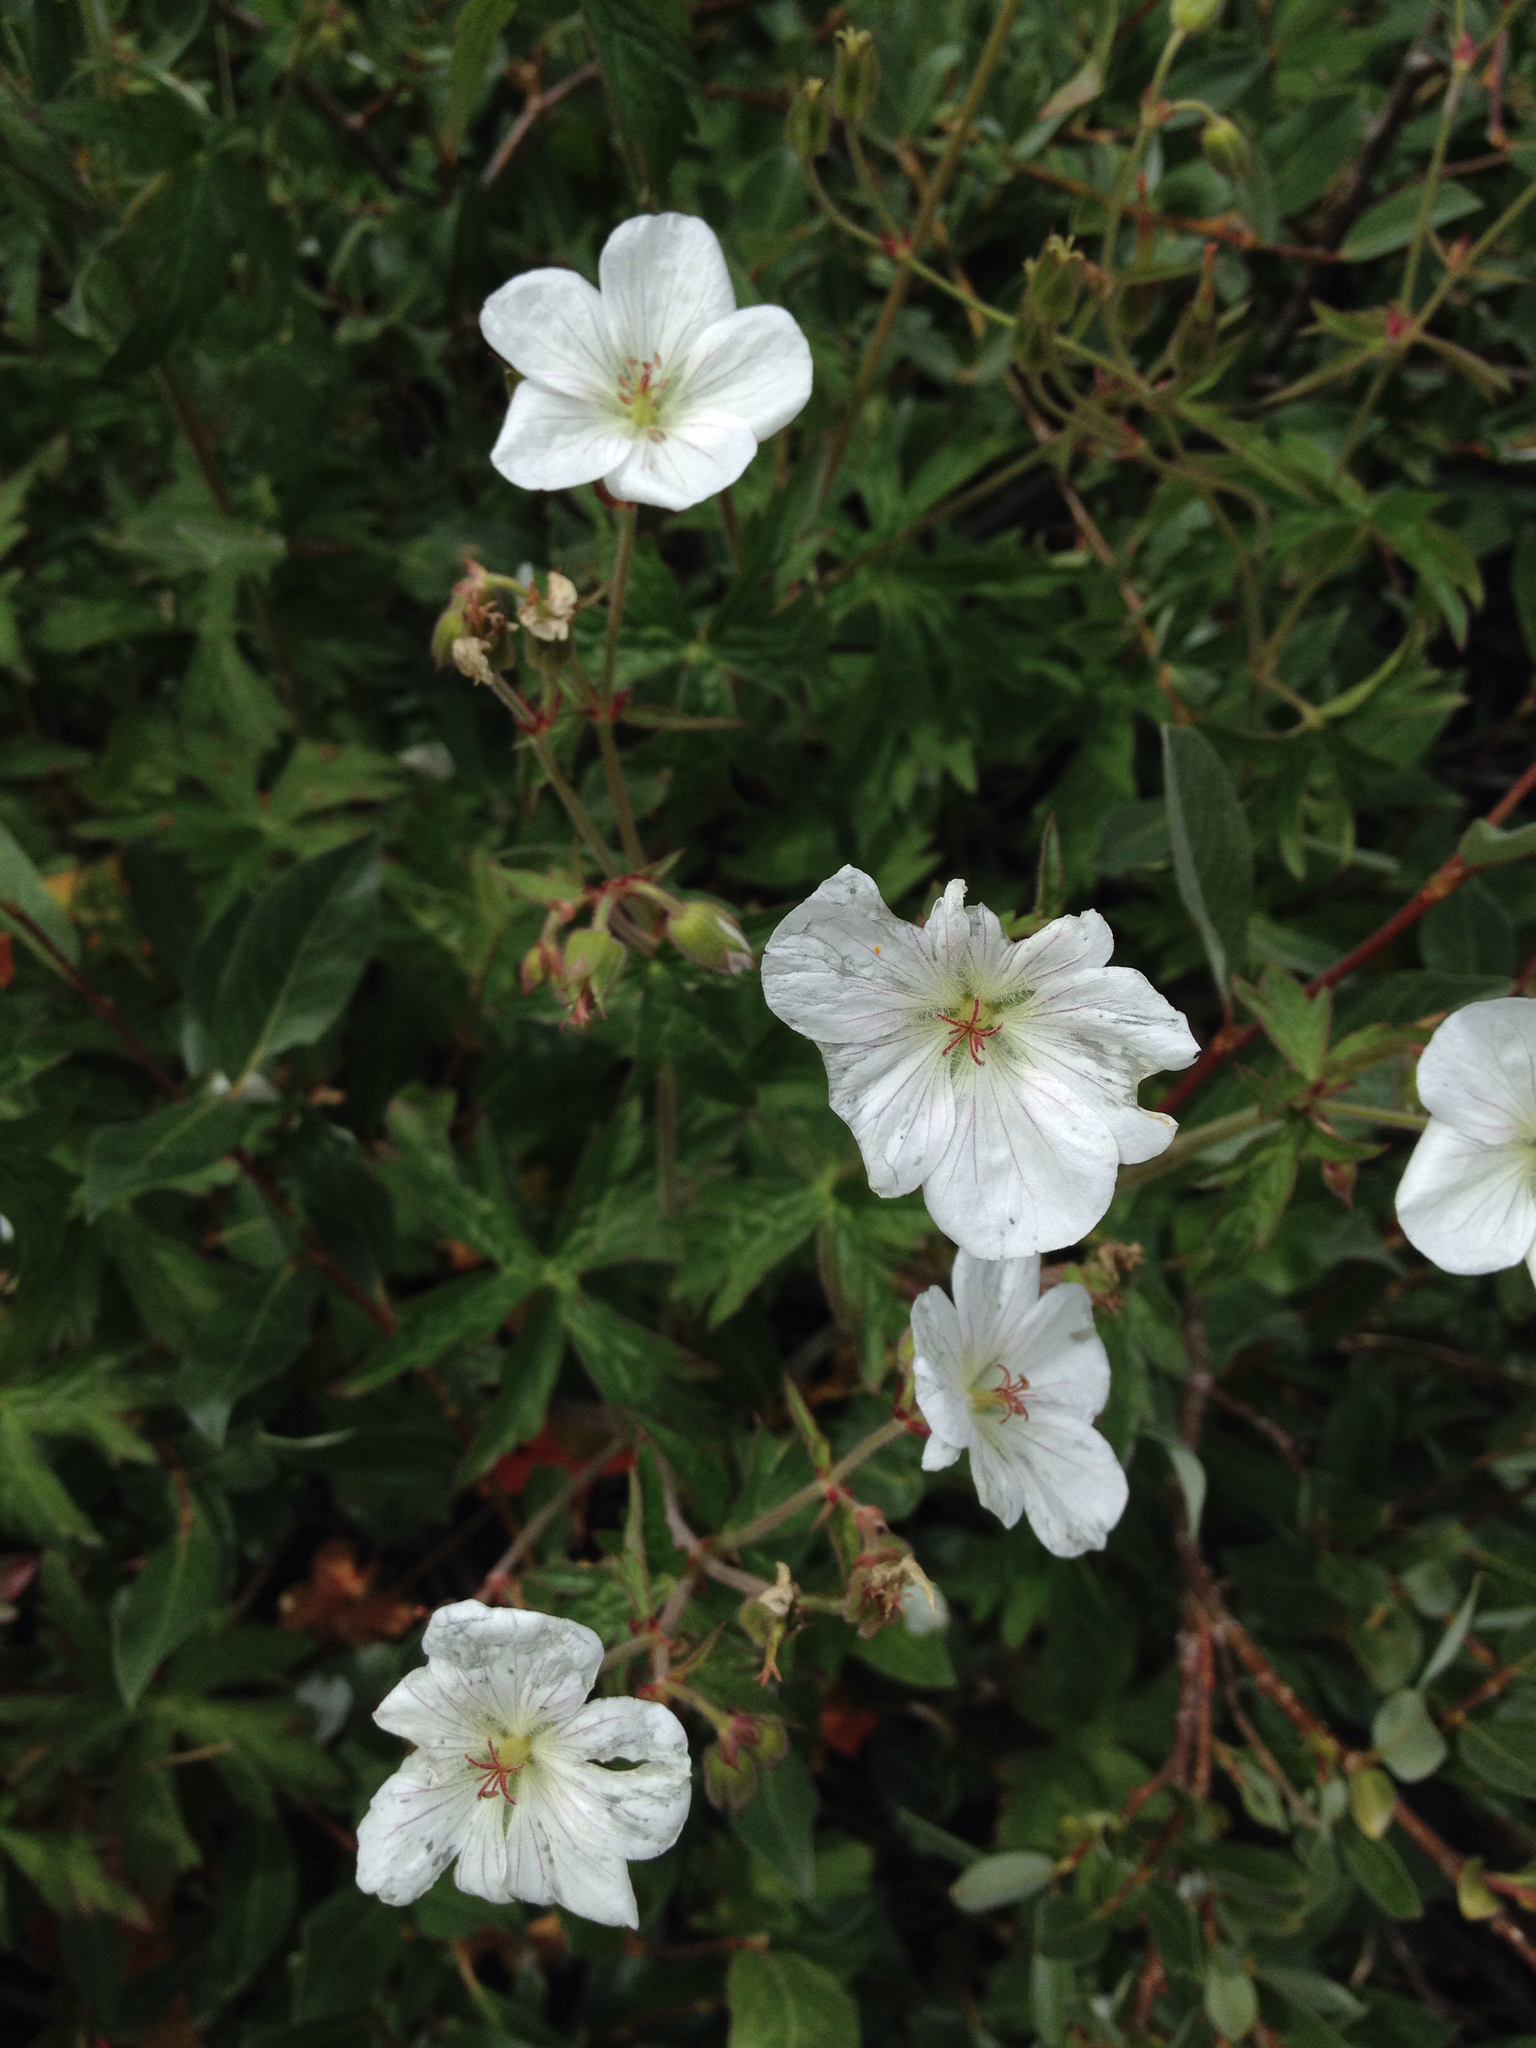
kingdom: Plantae
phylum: Tracheophyta
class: Magnoliopsida
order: Geraniales
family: Geraniaceae
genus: Geranium
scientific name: Geranium richardsonii
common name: Richardson's crane's-bill
